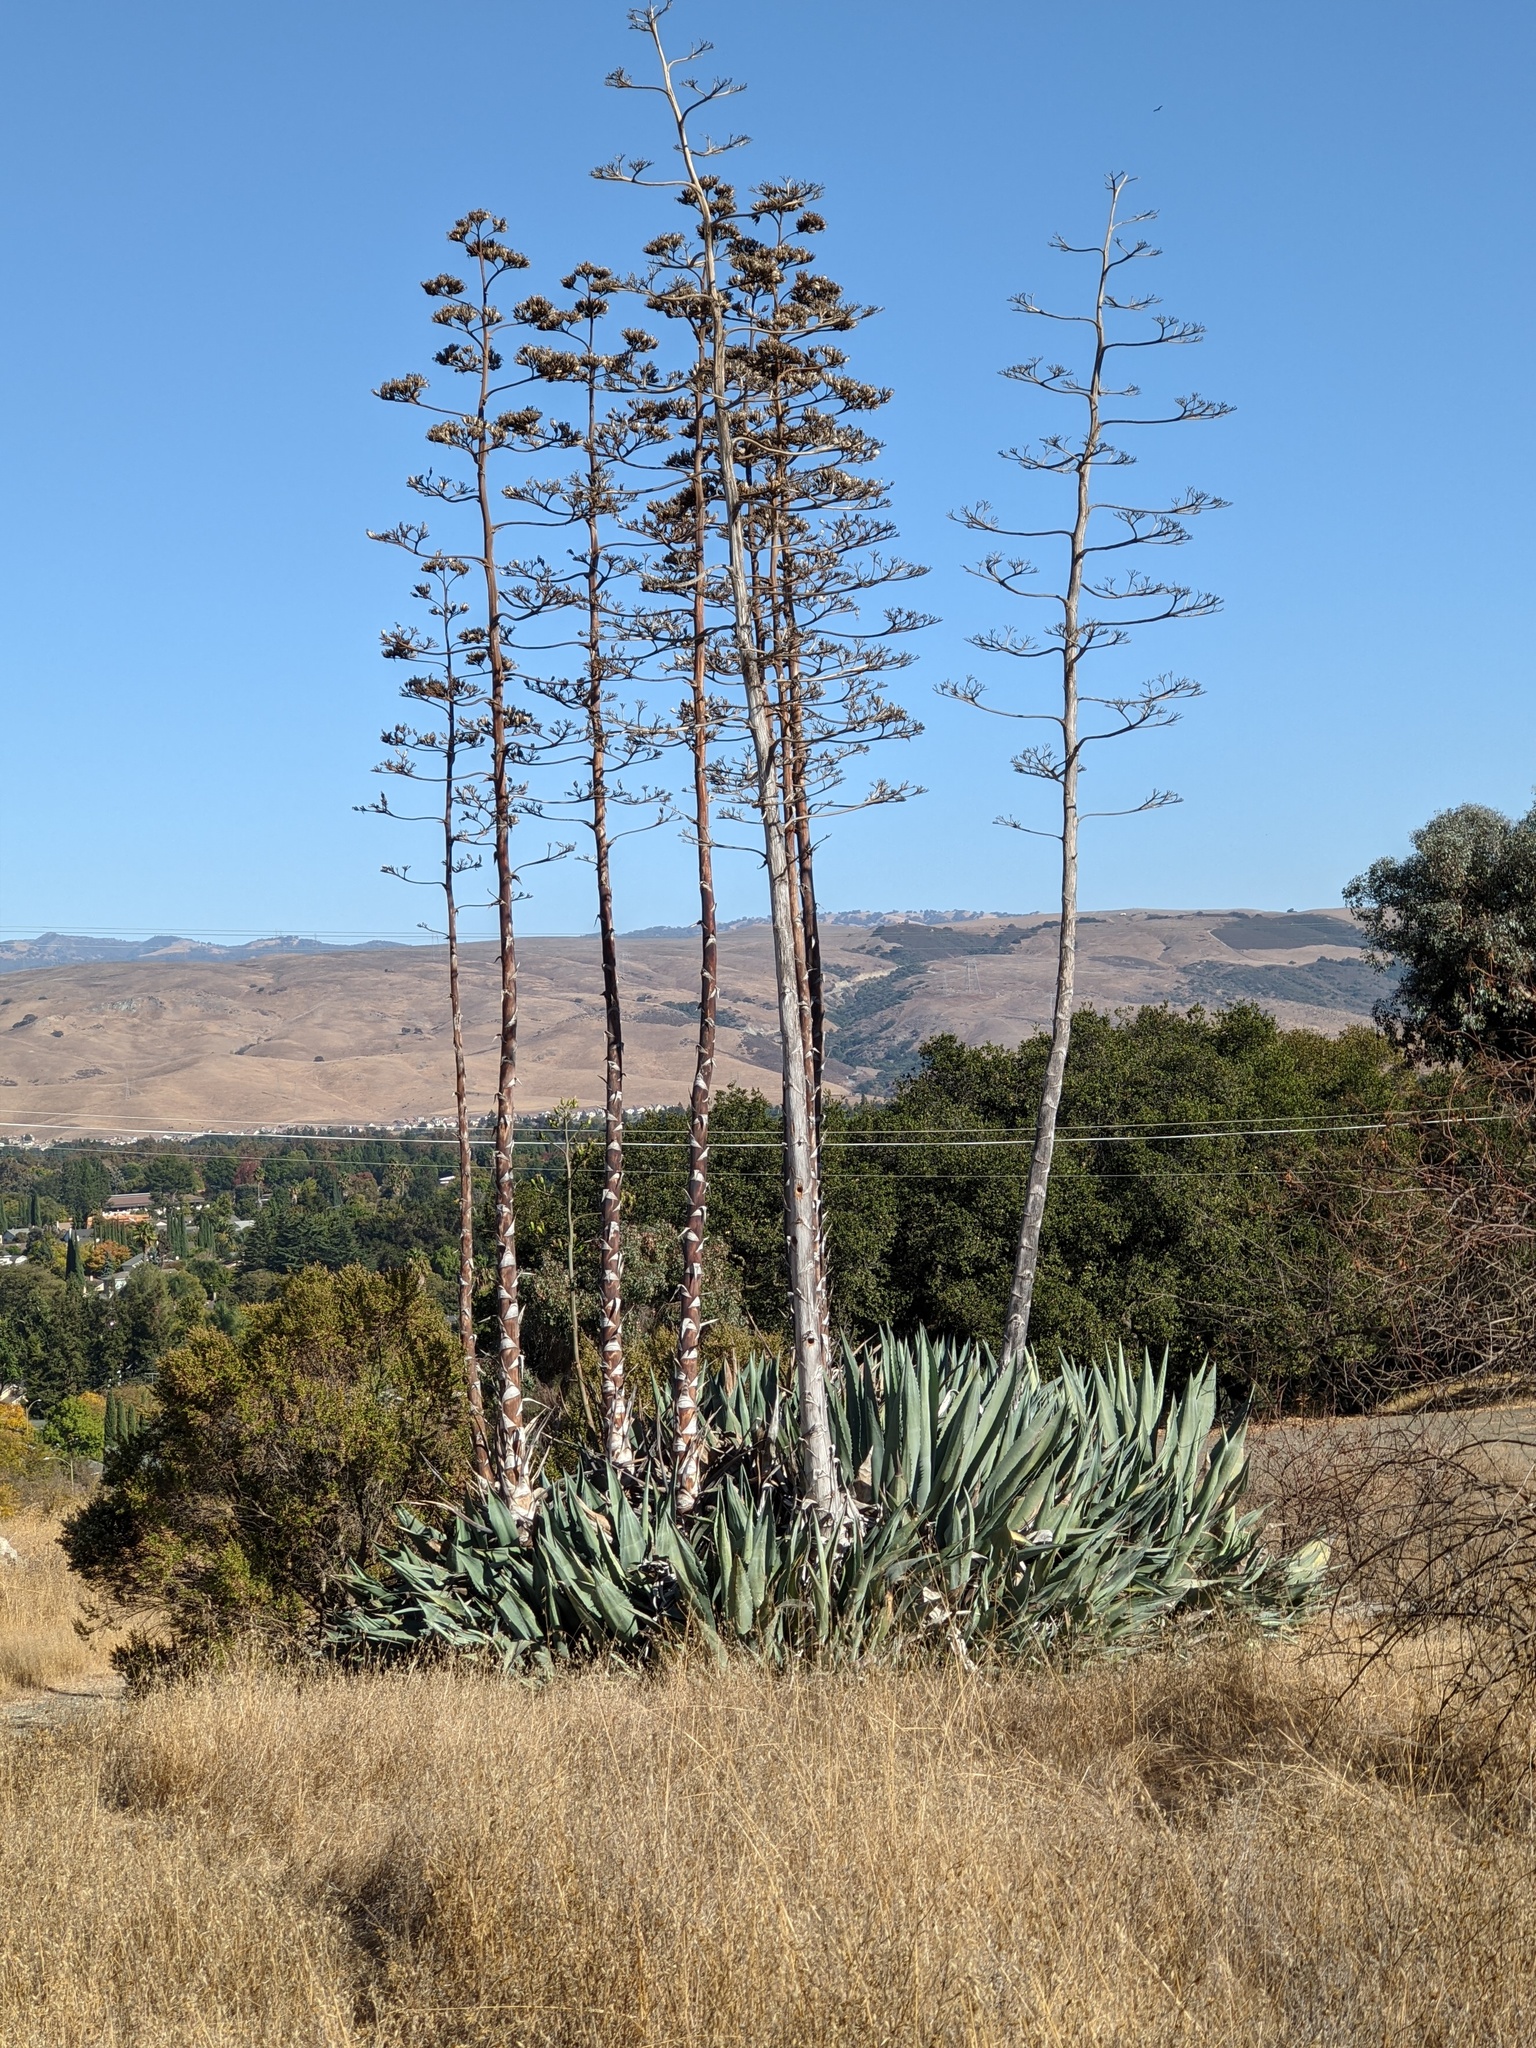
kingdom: Plantae
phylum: Tracheophyta
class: Liliopsida
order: Asparagales
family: Asparagaceae
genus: Agave
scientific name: Agave americana
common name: Centuryplant
